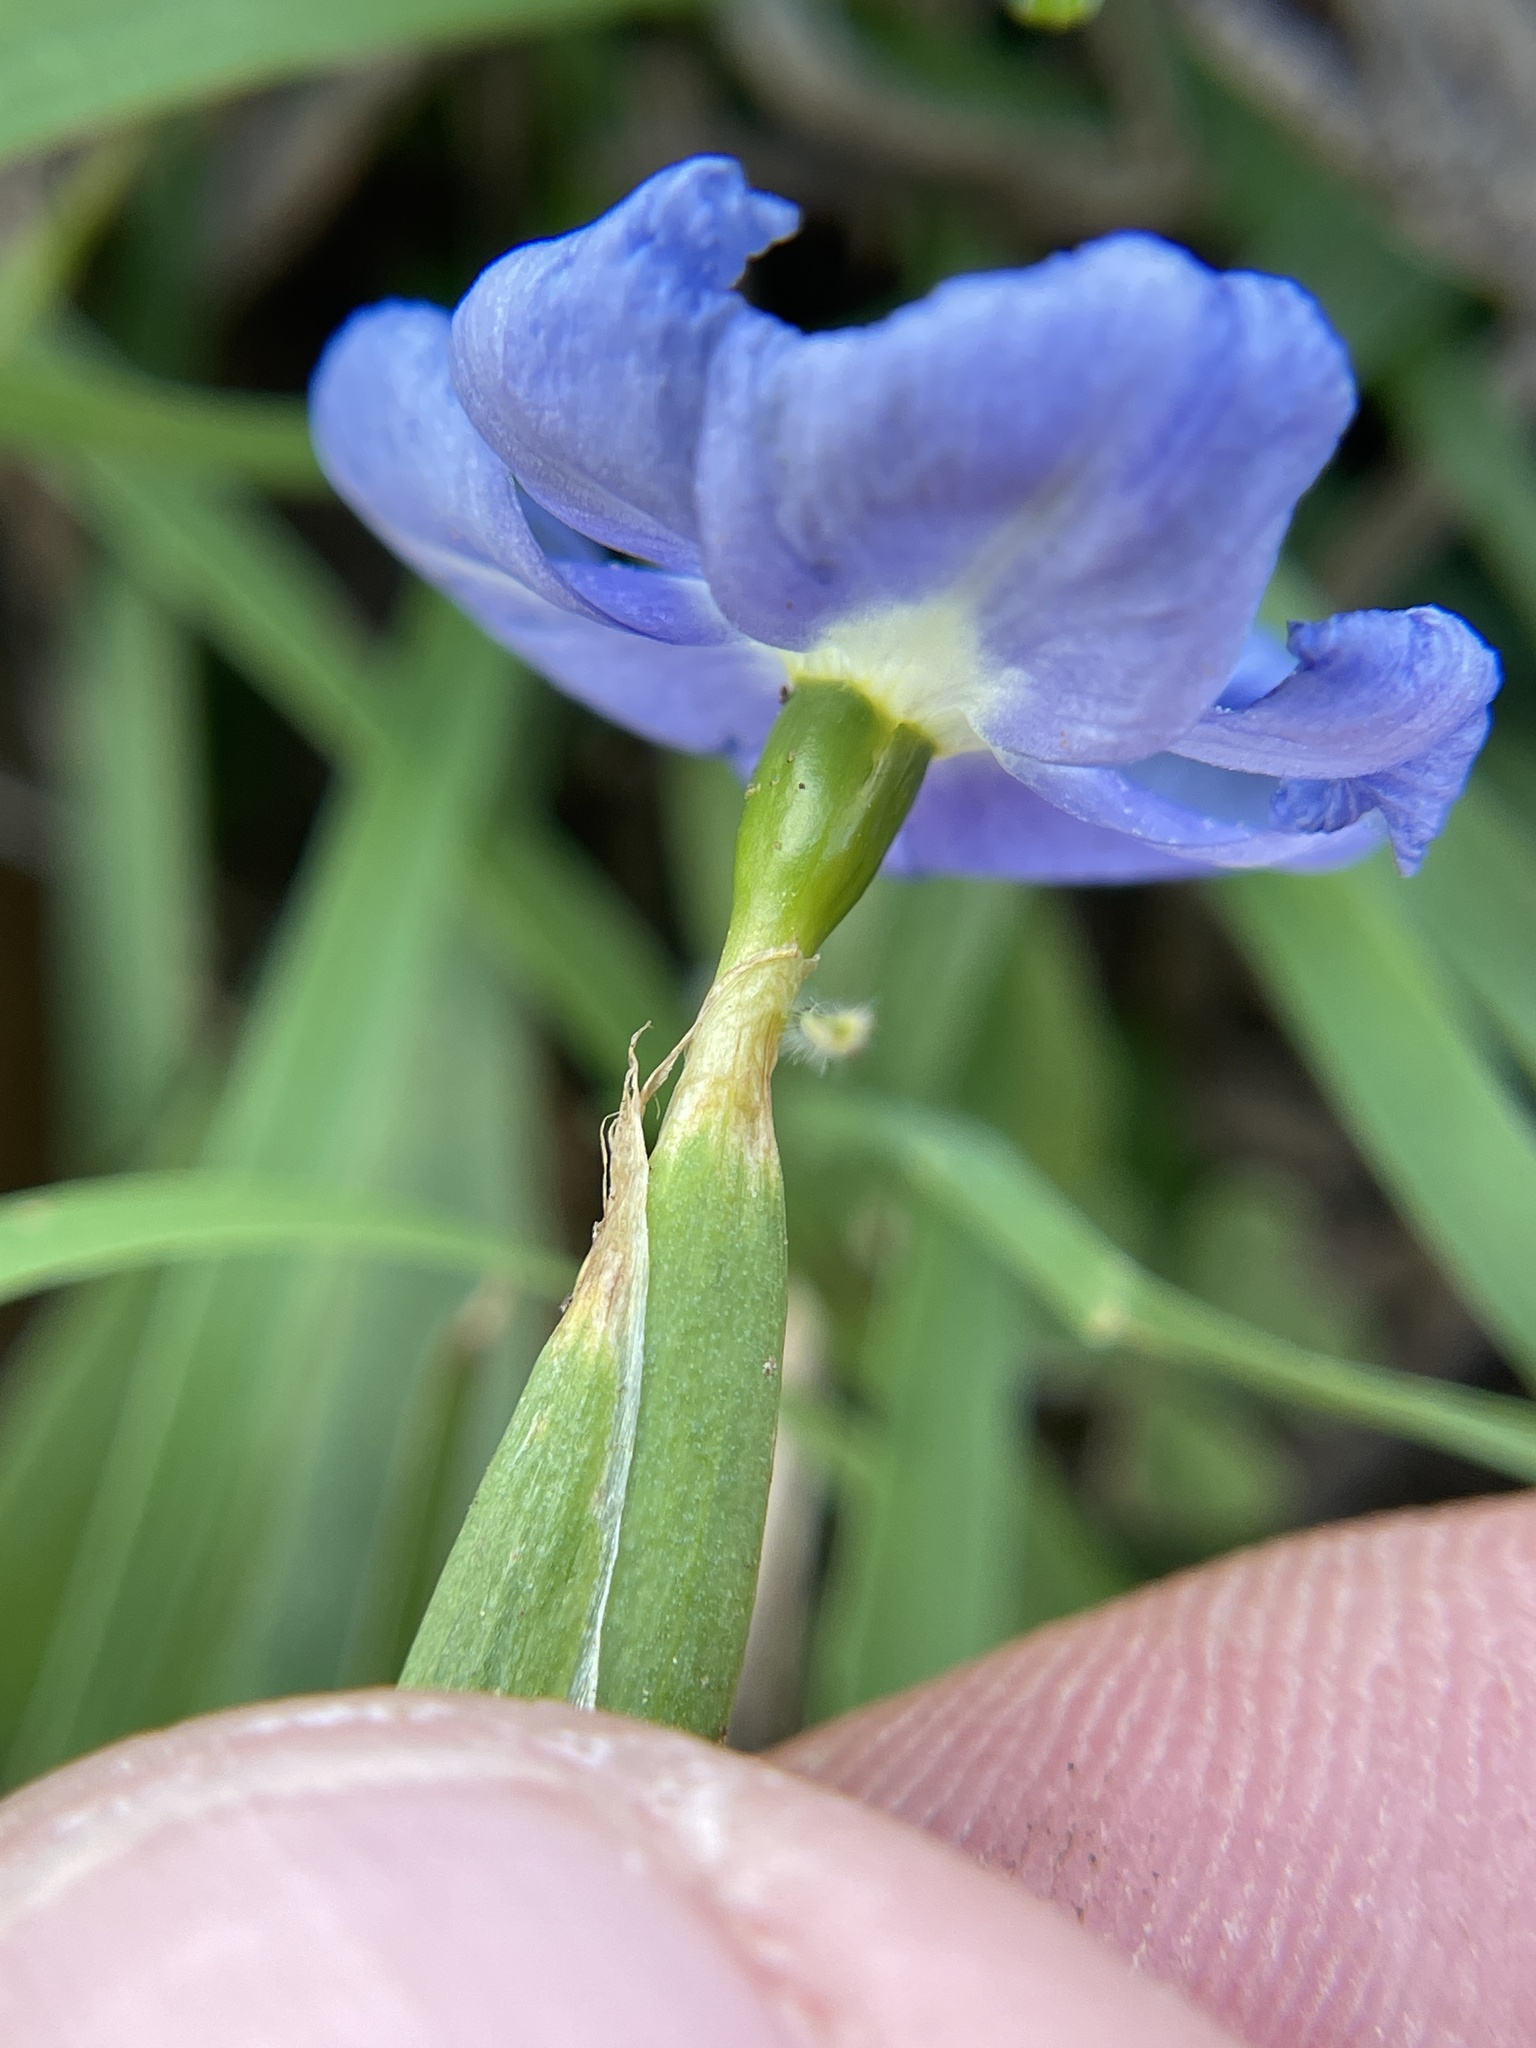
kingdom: Plantae
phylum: Tracheophyta
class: Liliopsida
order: Asparagales
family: Iridaceae
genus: Nemastylis
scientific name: Nemastylis geminiflora
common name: Prairie celestial
